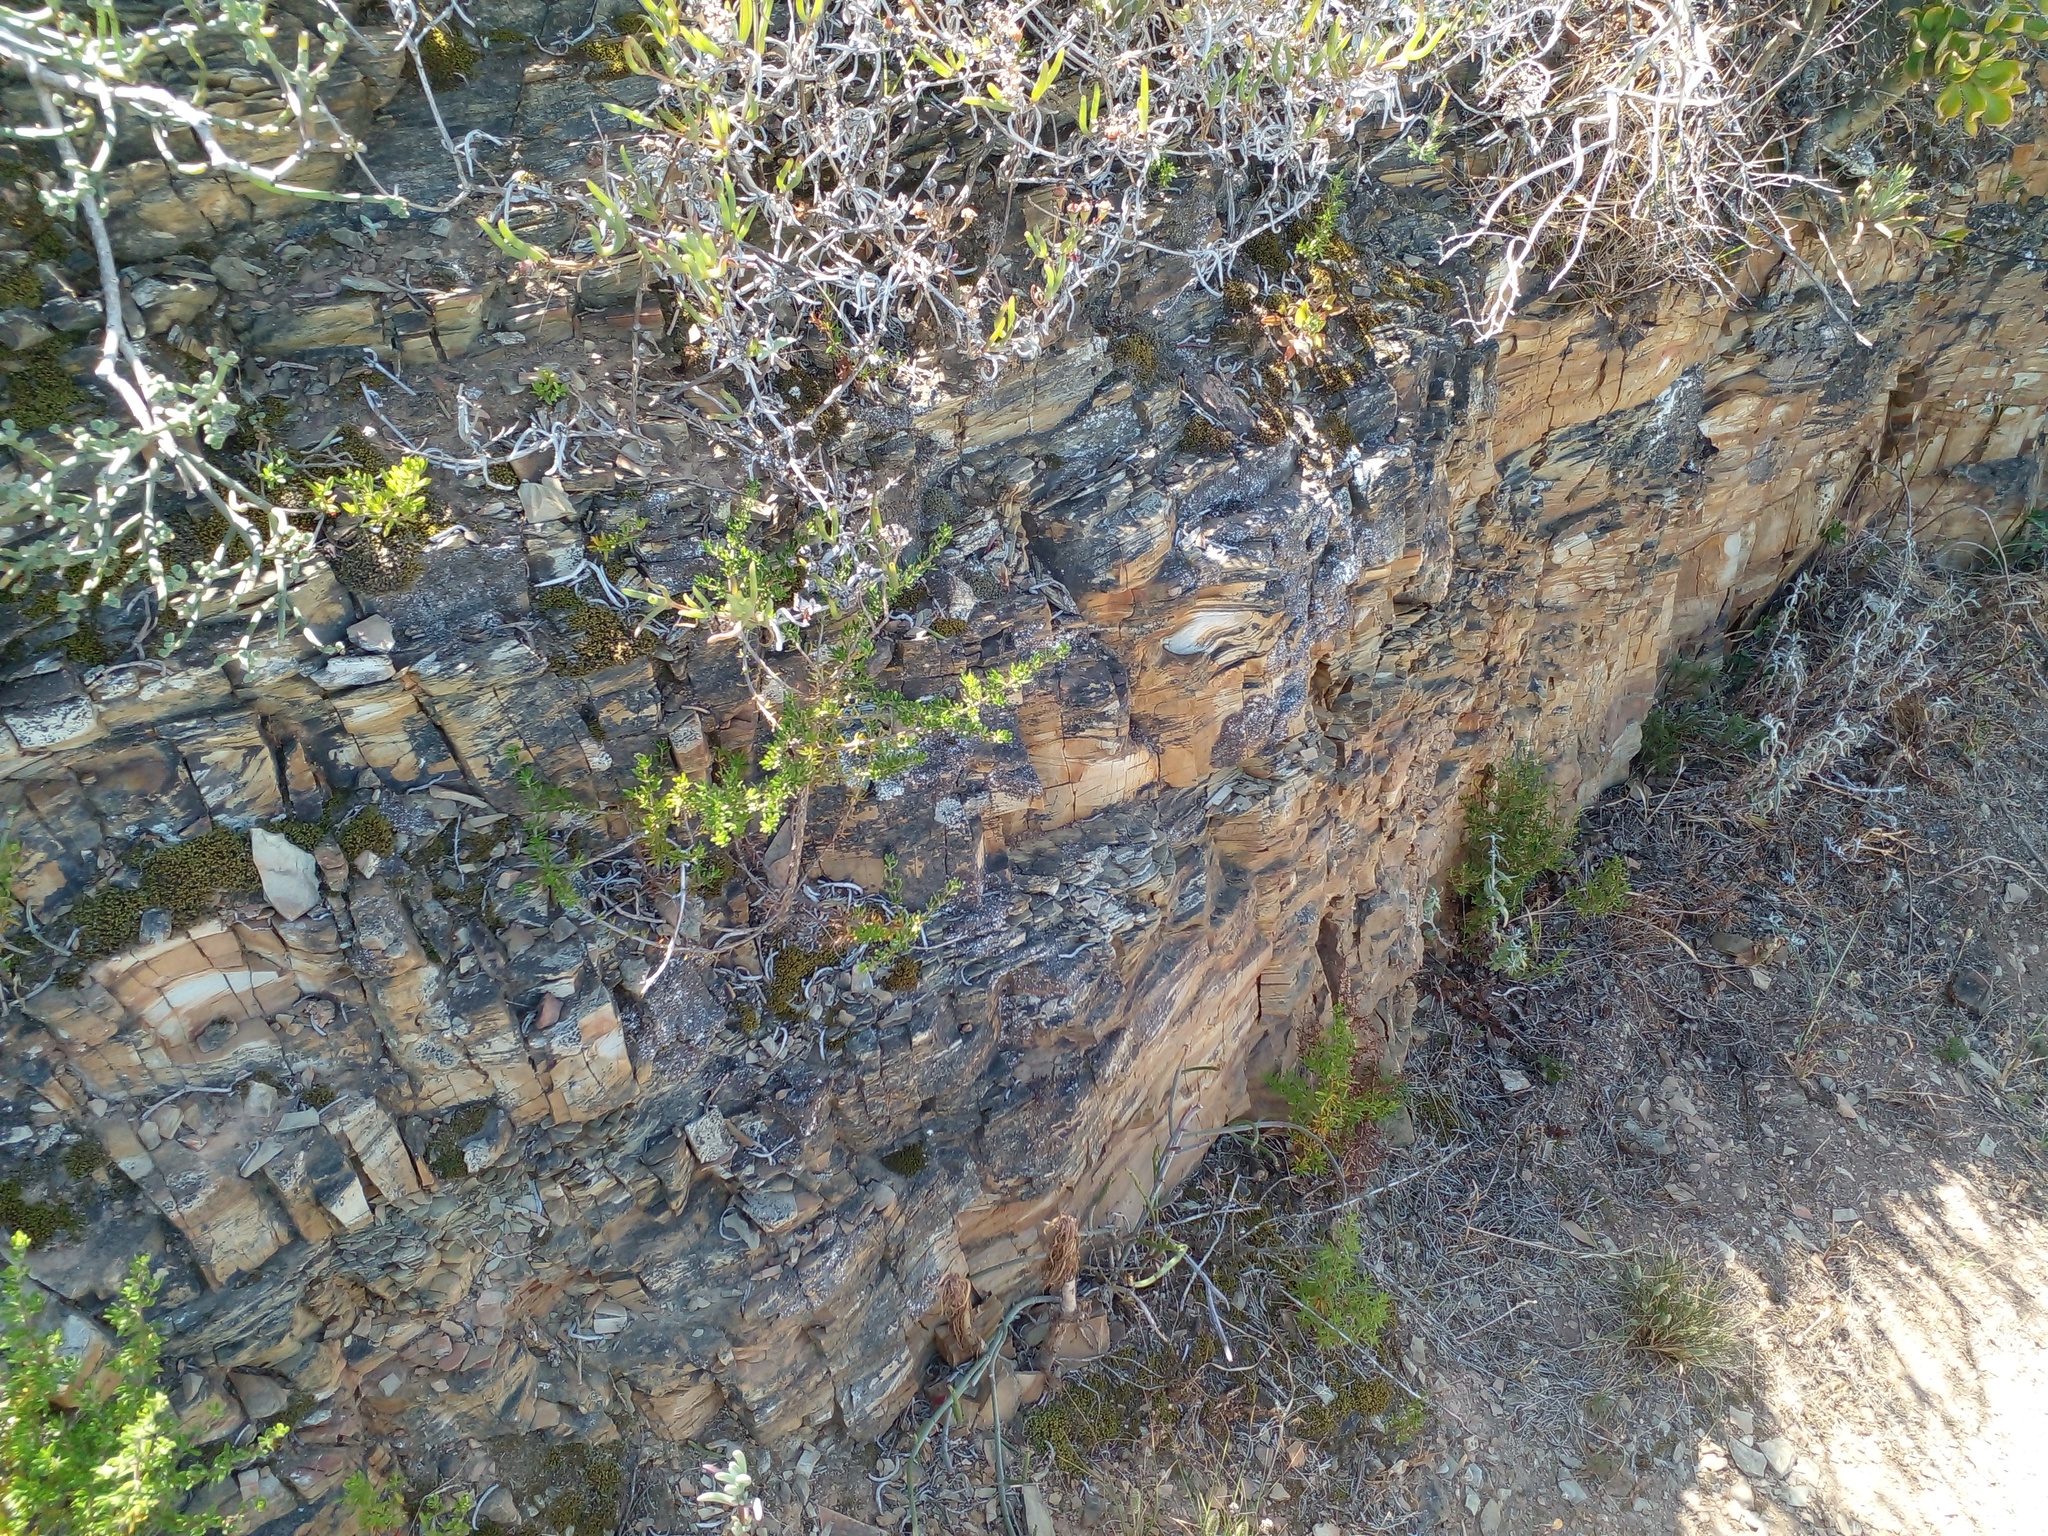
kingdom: Plantae
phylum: Tracheophyta
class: Magnoliopsida
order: Saxifragales
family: Crassulaceae
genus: Tylecodon
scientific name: Tylecodon paniculatus
